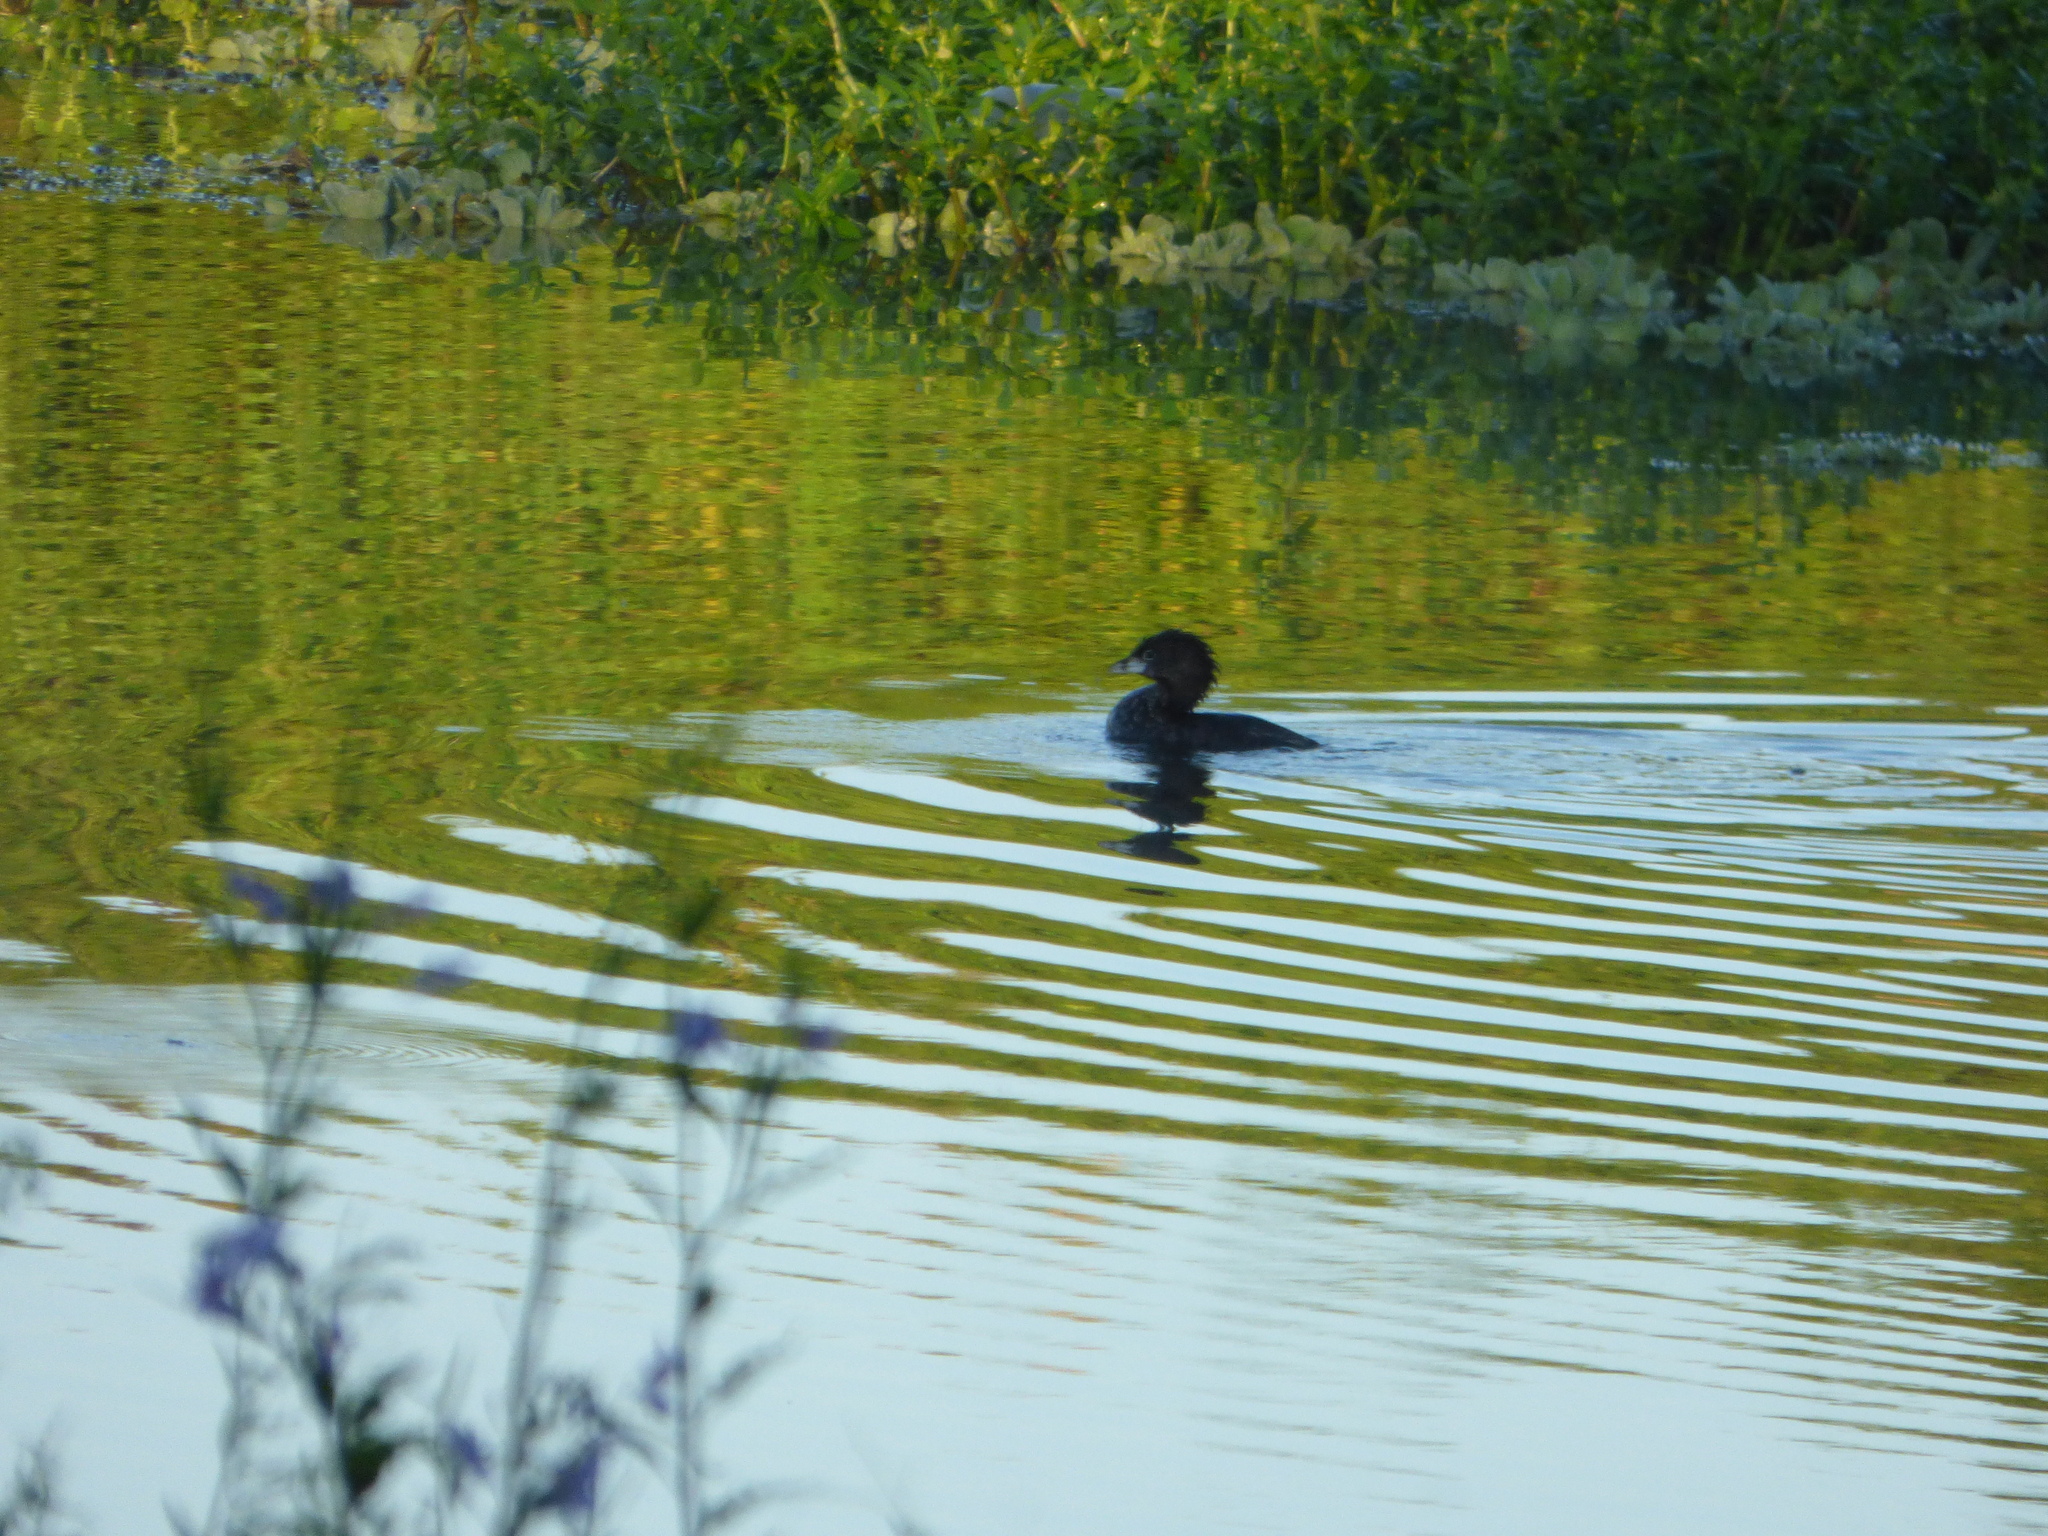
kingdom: Animalia
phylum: Chordata
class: Aves
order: Podicipediformes
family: Podicipedidae
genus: Podilymbus
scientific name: Podilymbus podiceps
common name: Pied-billed grebe
